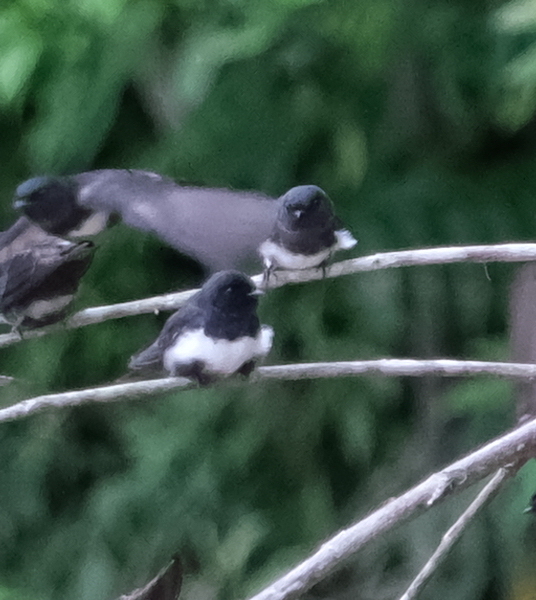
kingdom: Animalia
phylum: Chordata
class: Aves
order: Passeriformes
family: Hirundinidae
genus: Atticora
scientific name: Atticora fasciata
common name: White-banded swallow
